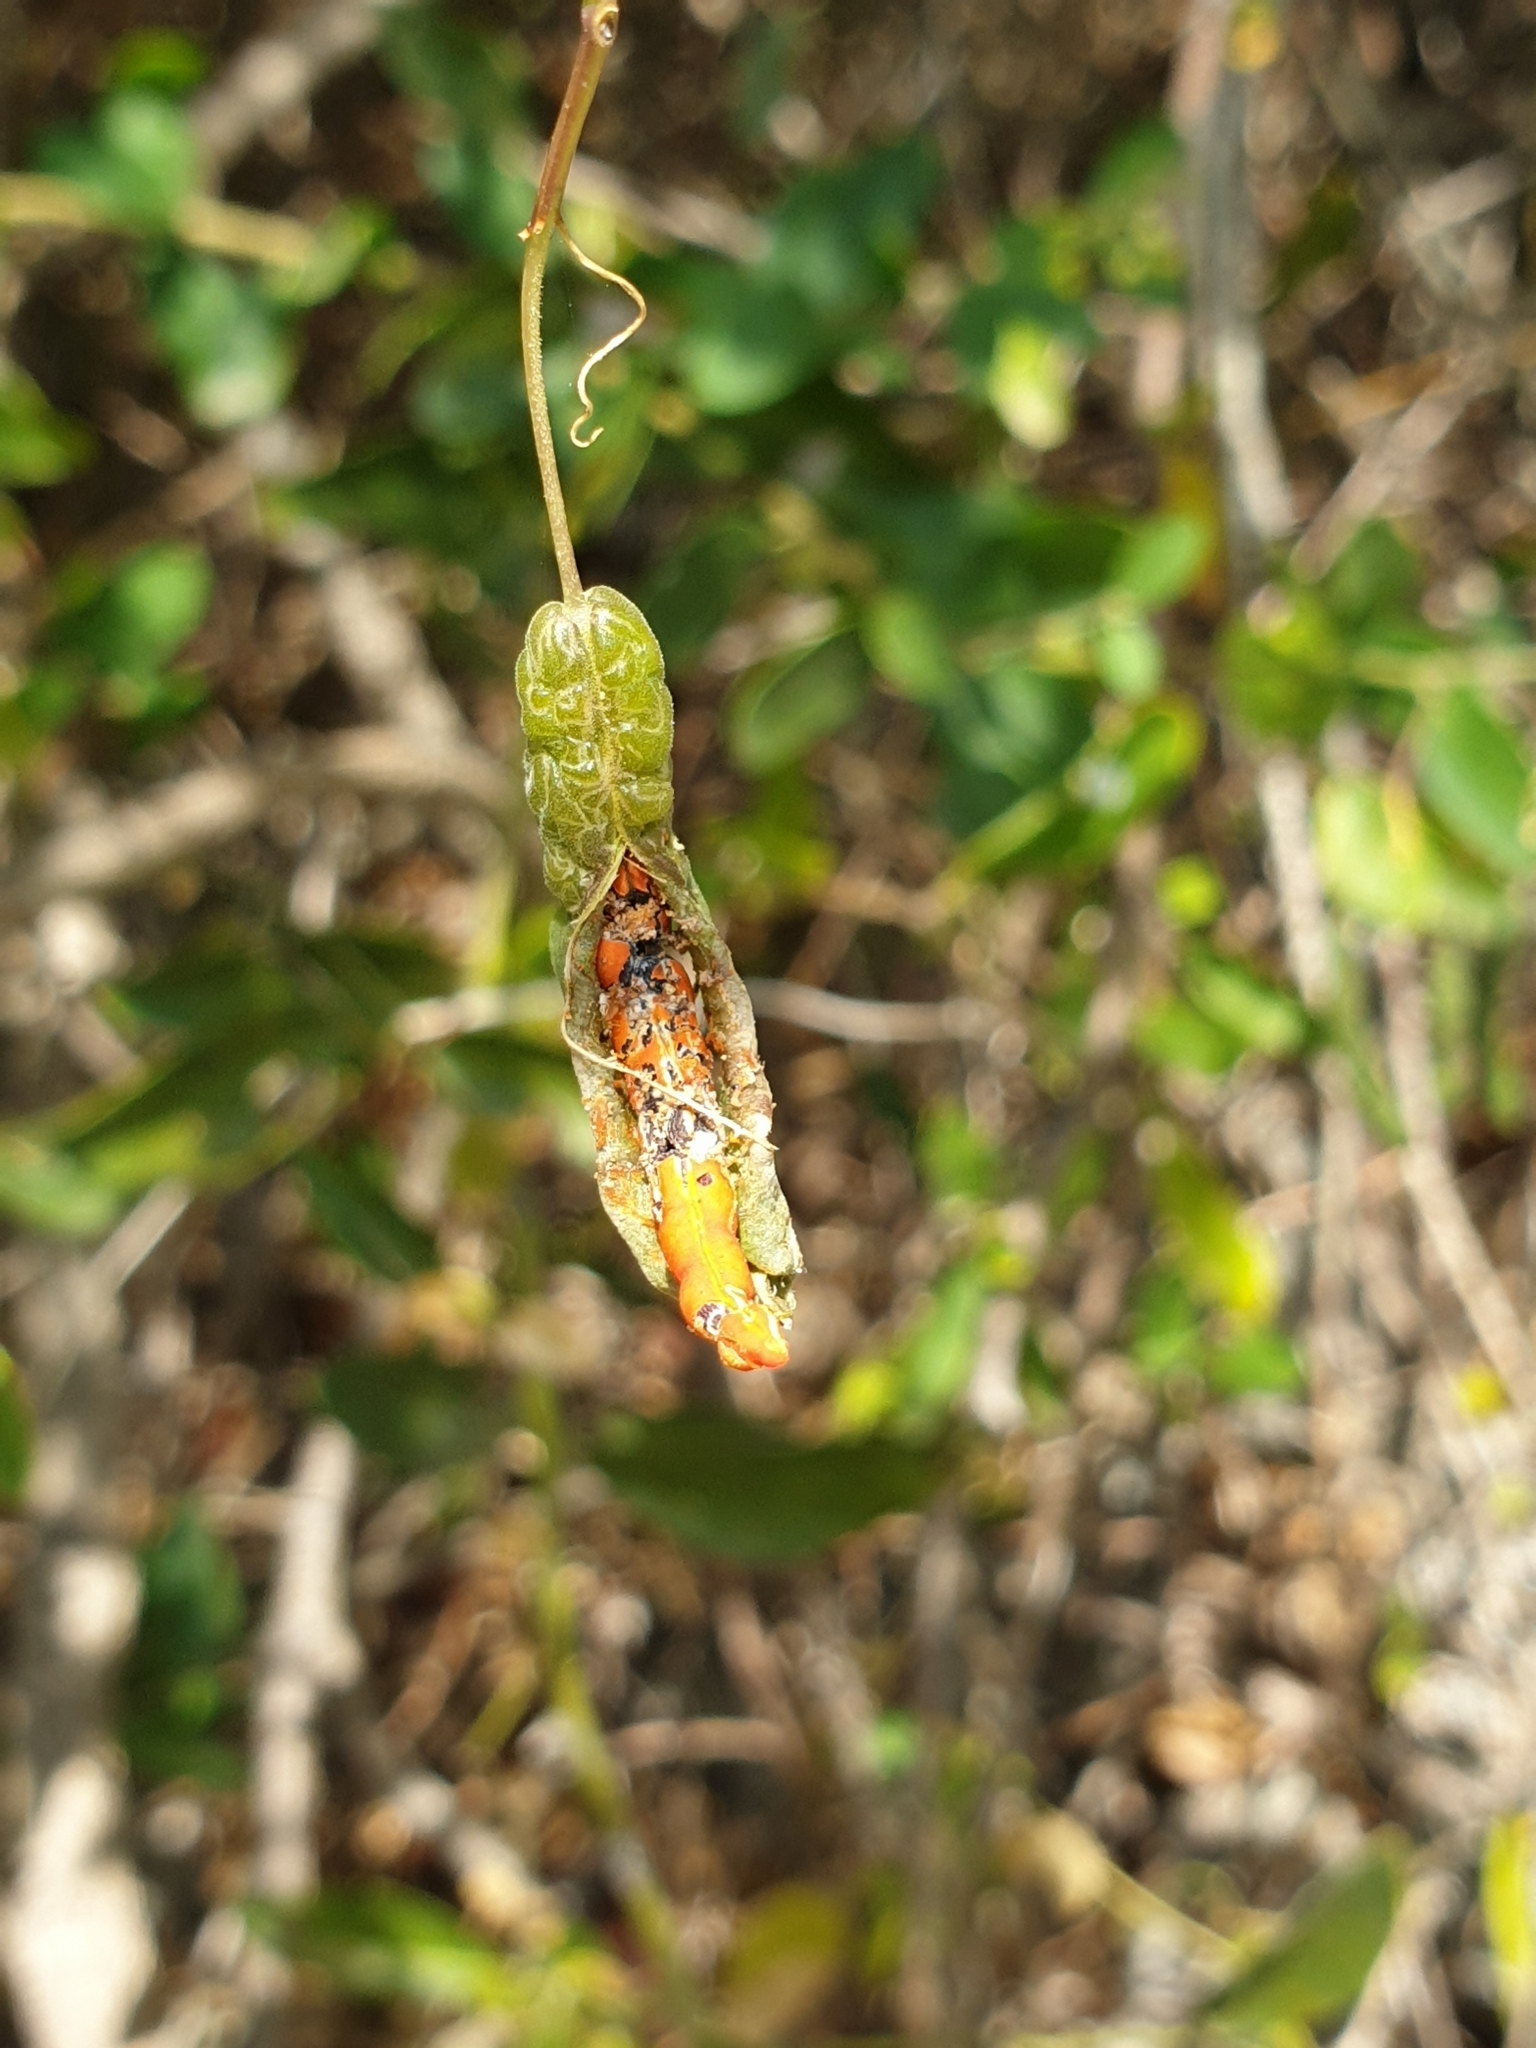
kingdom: Plantae
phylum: Tracheophyta
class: Magnoliopsida
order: Brassicales
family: Capparaceae
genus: Cadaba
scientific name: Cadaba fruticosa
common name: Indian cadaba
